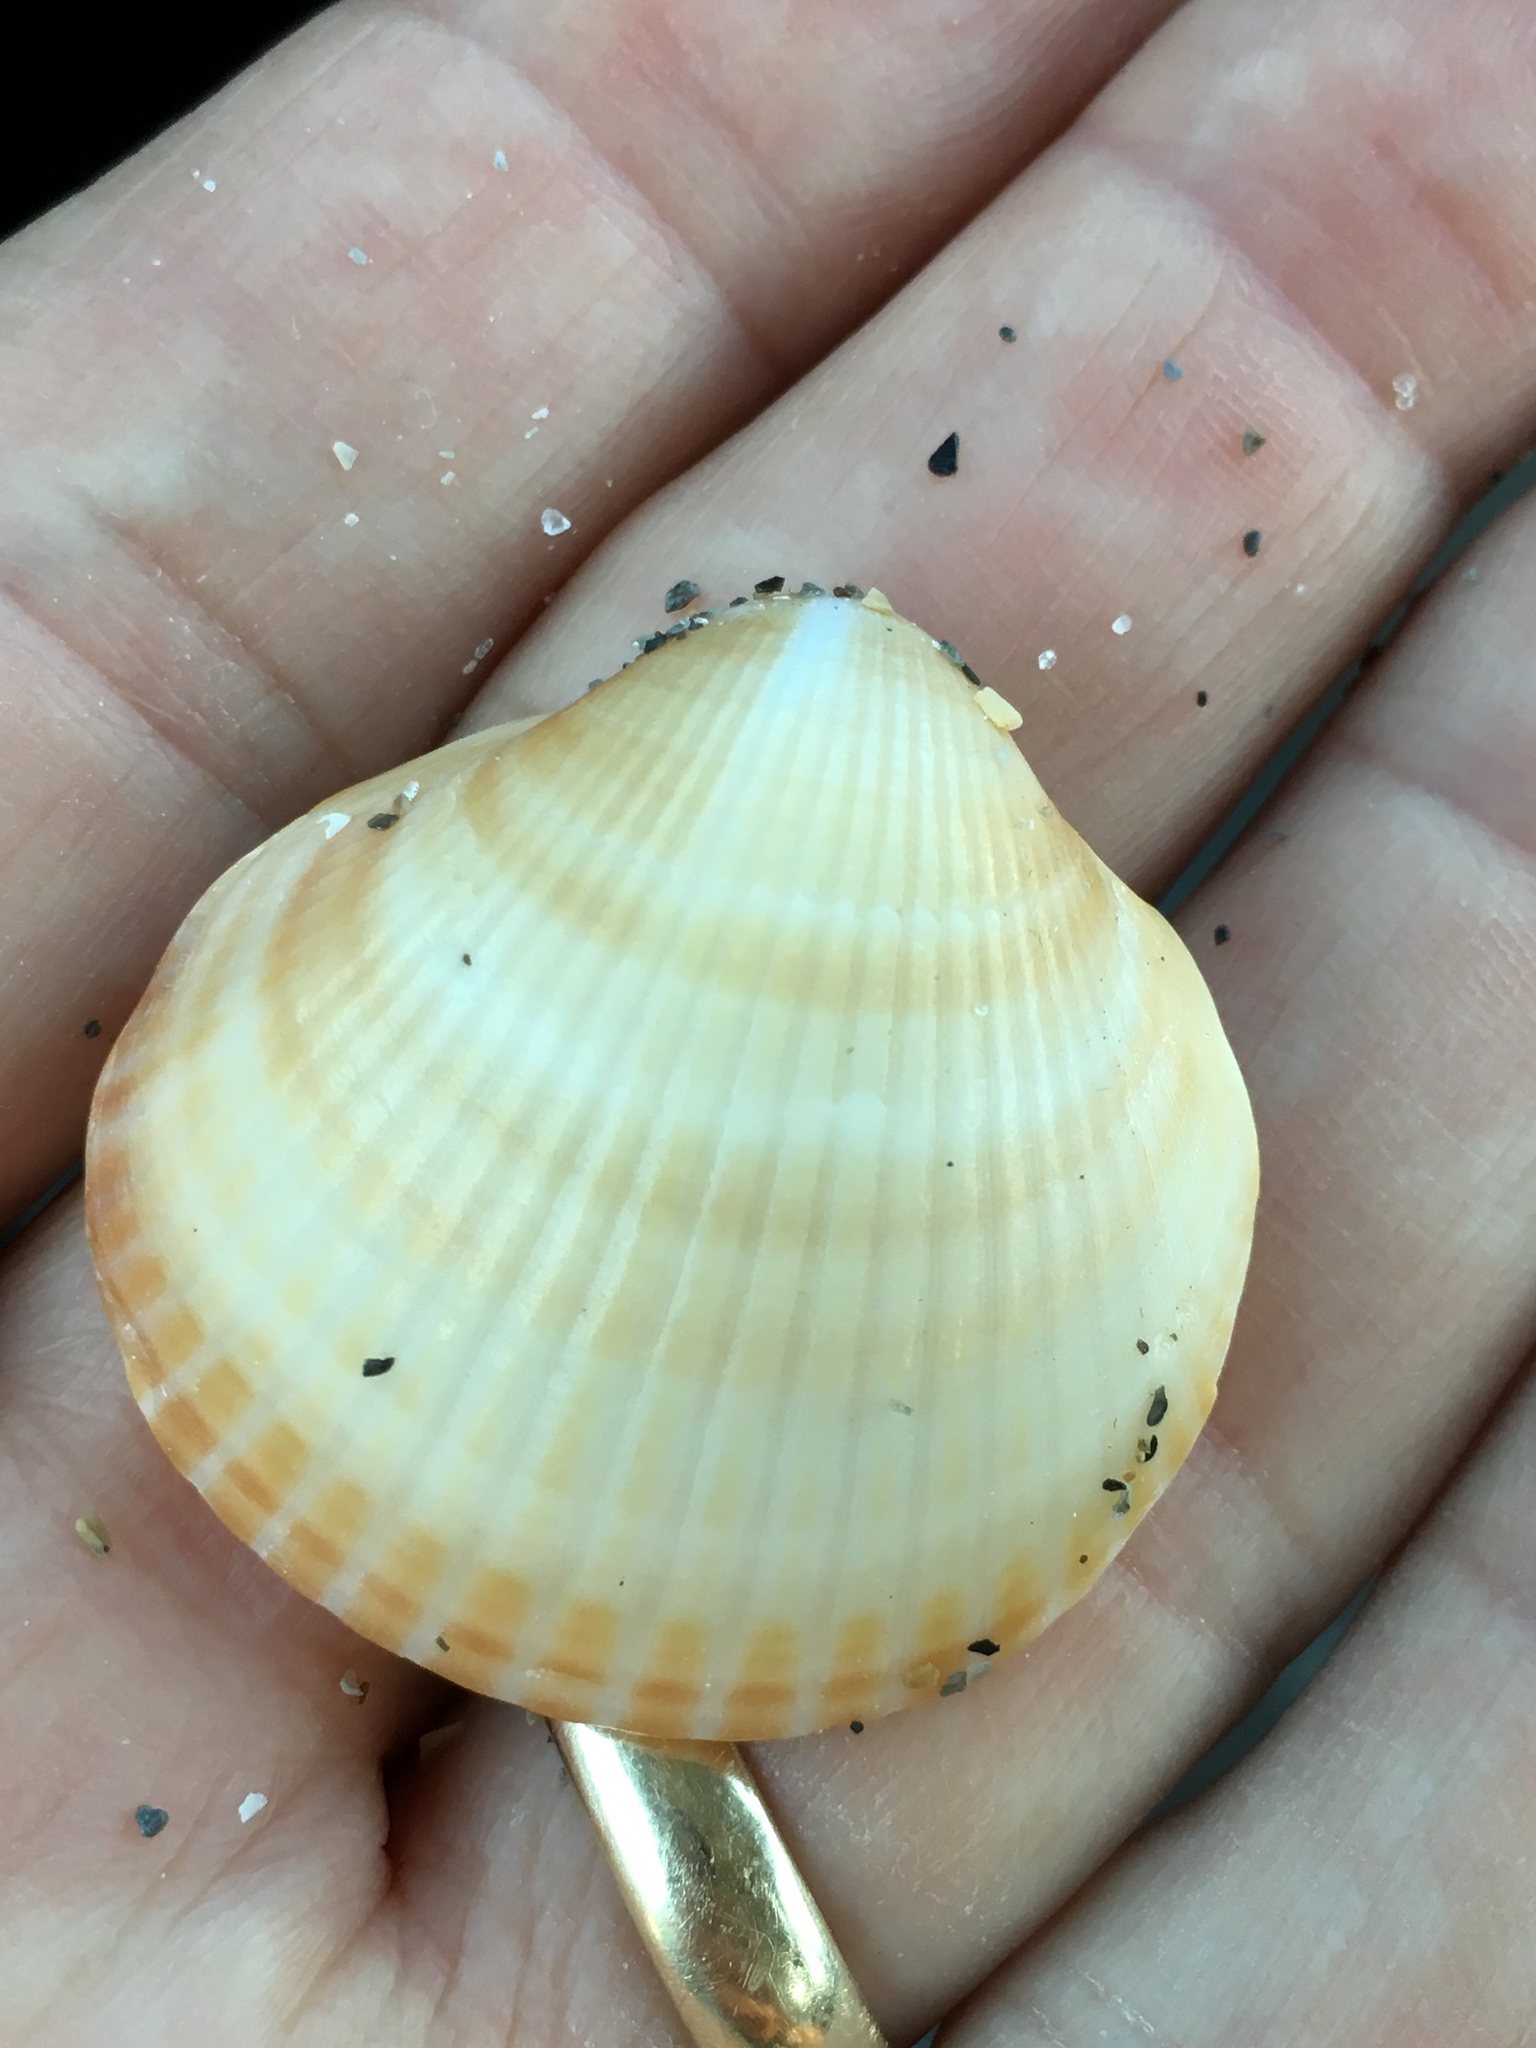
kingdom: Animalia
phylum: Mollusca
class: Bivalvia
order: Arcida
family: Glycymerididae
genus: Glycymeris
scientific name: Glycymeris spectralis
